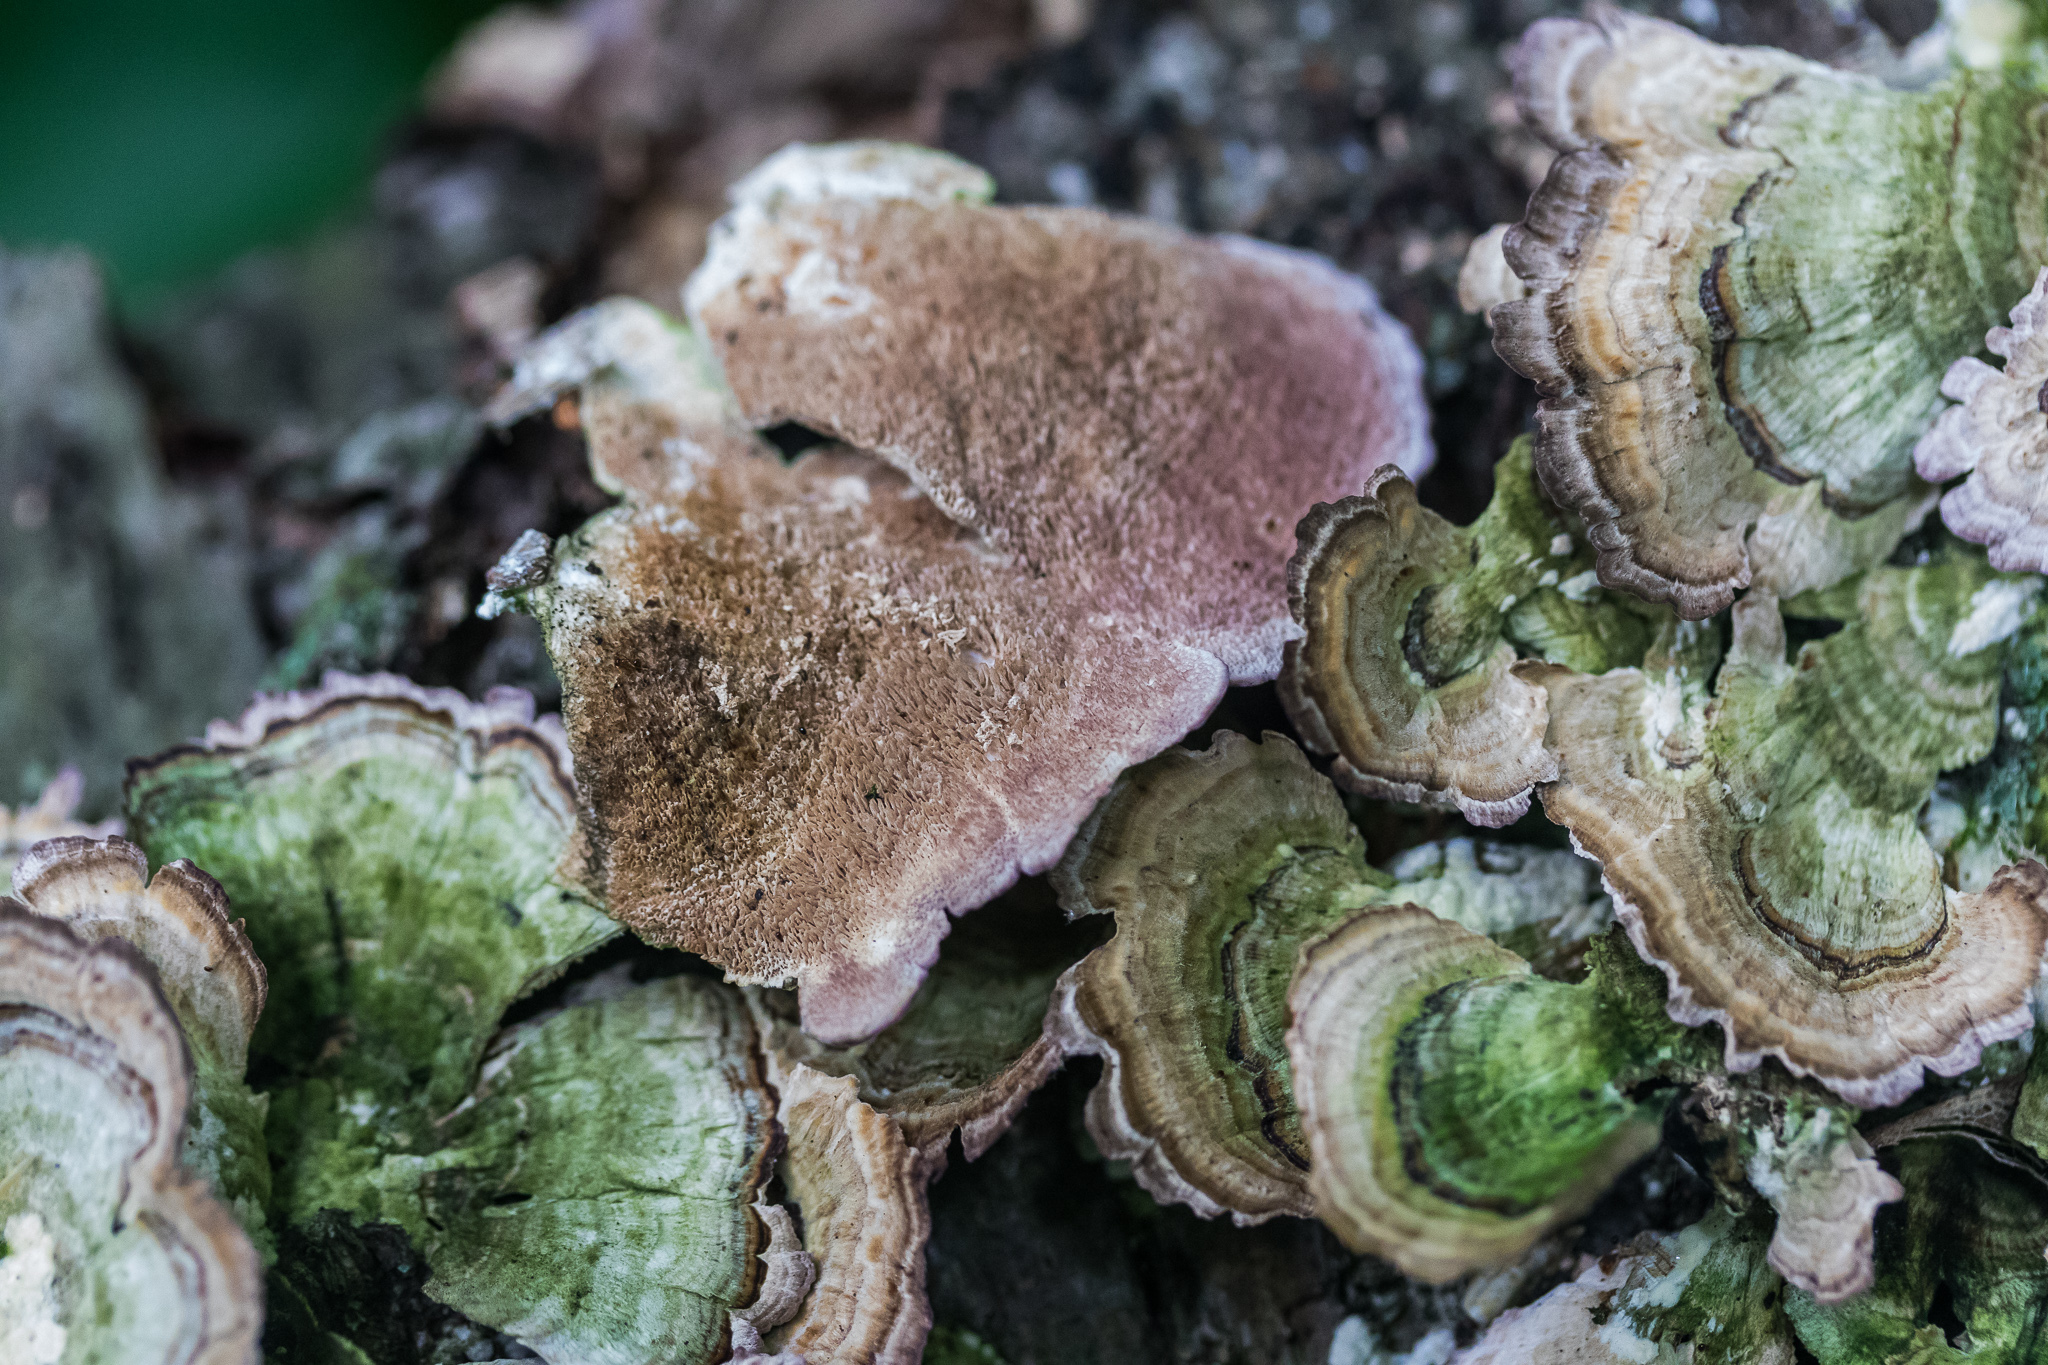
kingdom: Fungi
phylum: Basidiomycota
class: Agaricomycetes
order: Hymenochaetales
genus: Trichaptum
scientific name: Trichaptum biforme
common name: Violet-toothed polypore
